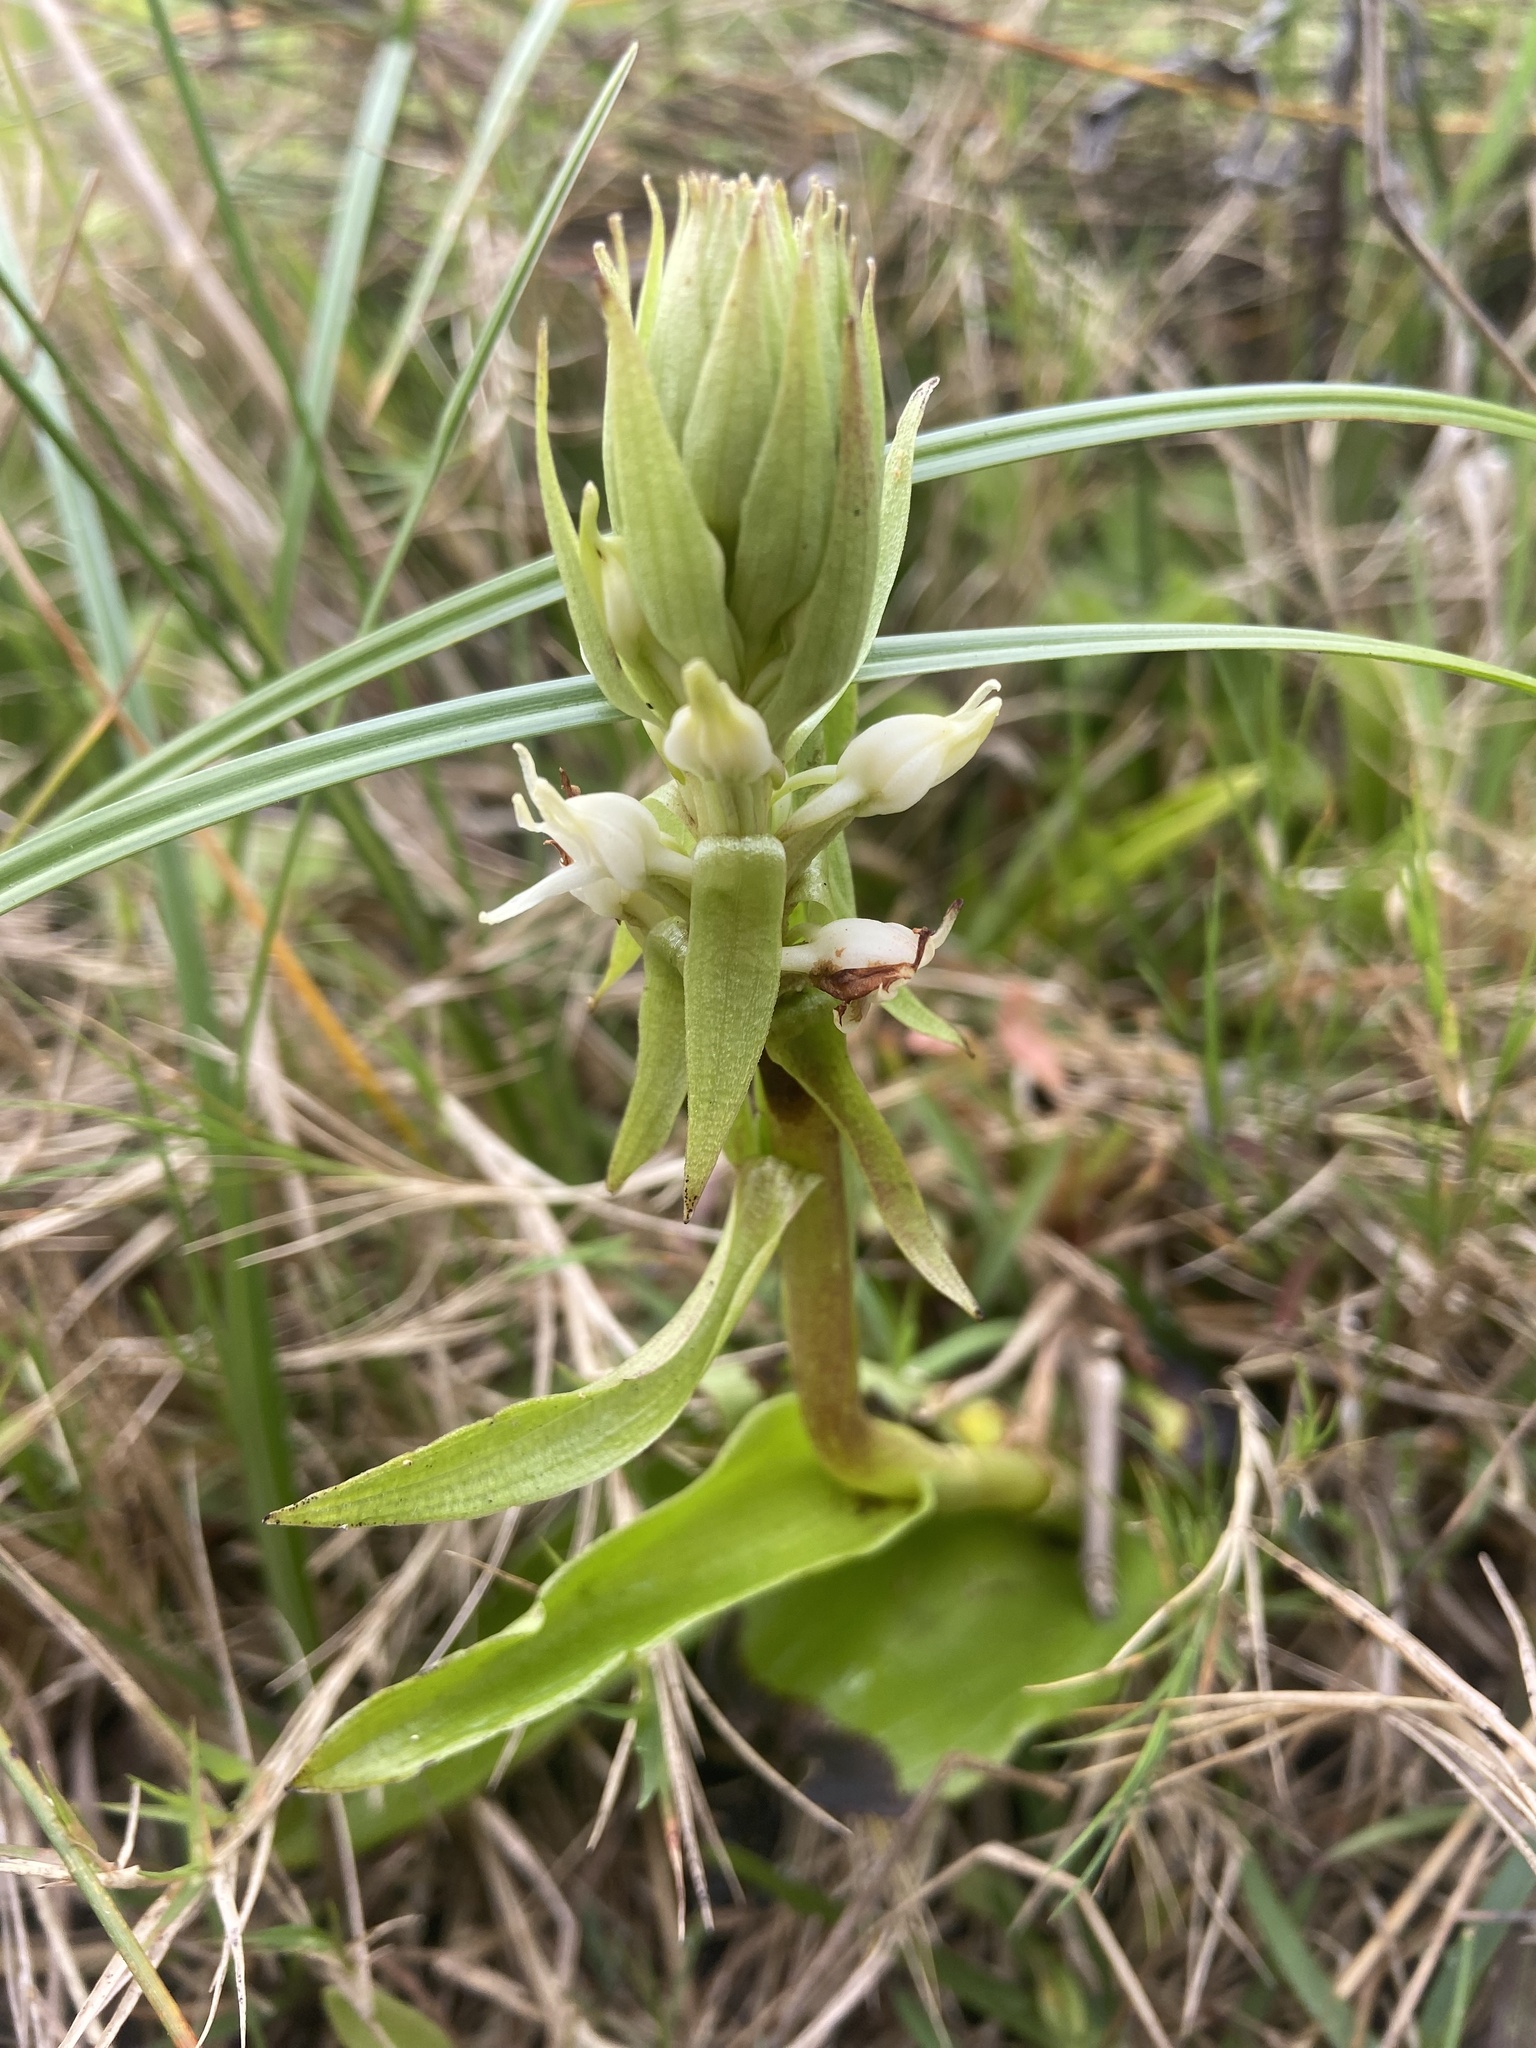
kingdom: Plantae
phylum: Tracheophyta
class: Liliopsida
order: Asparagales
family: Orchidaceae
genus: Satyrium
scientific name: Satyrium ligulatum
